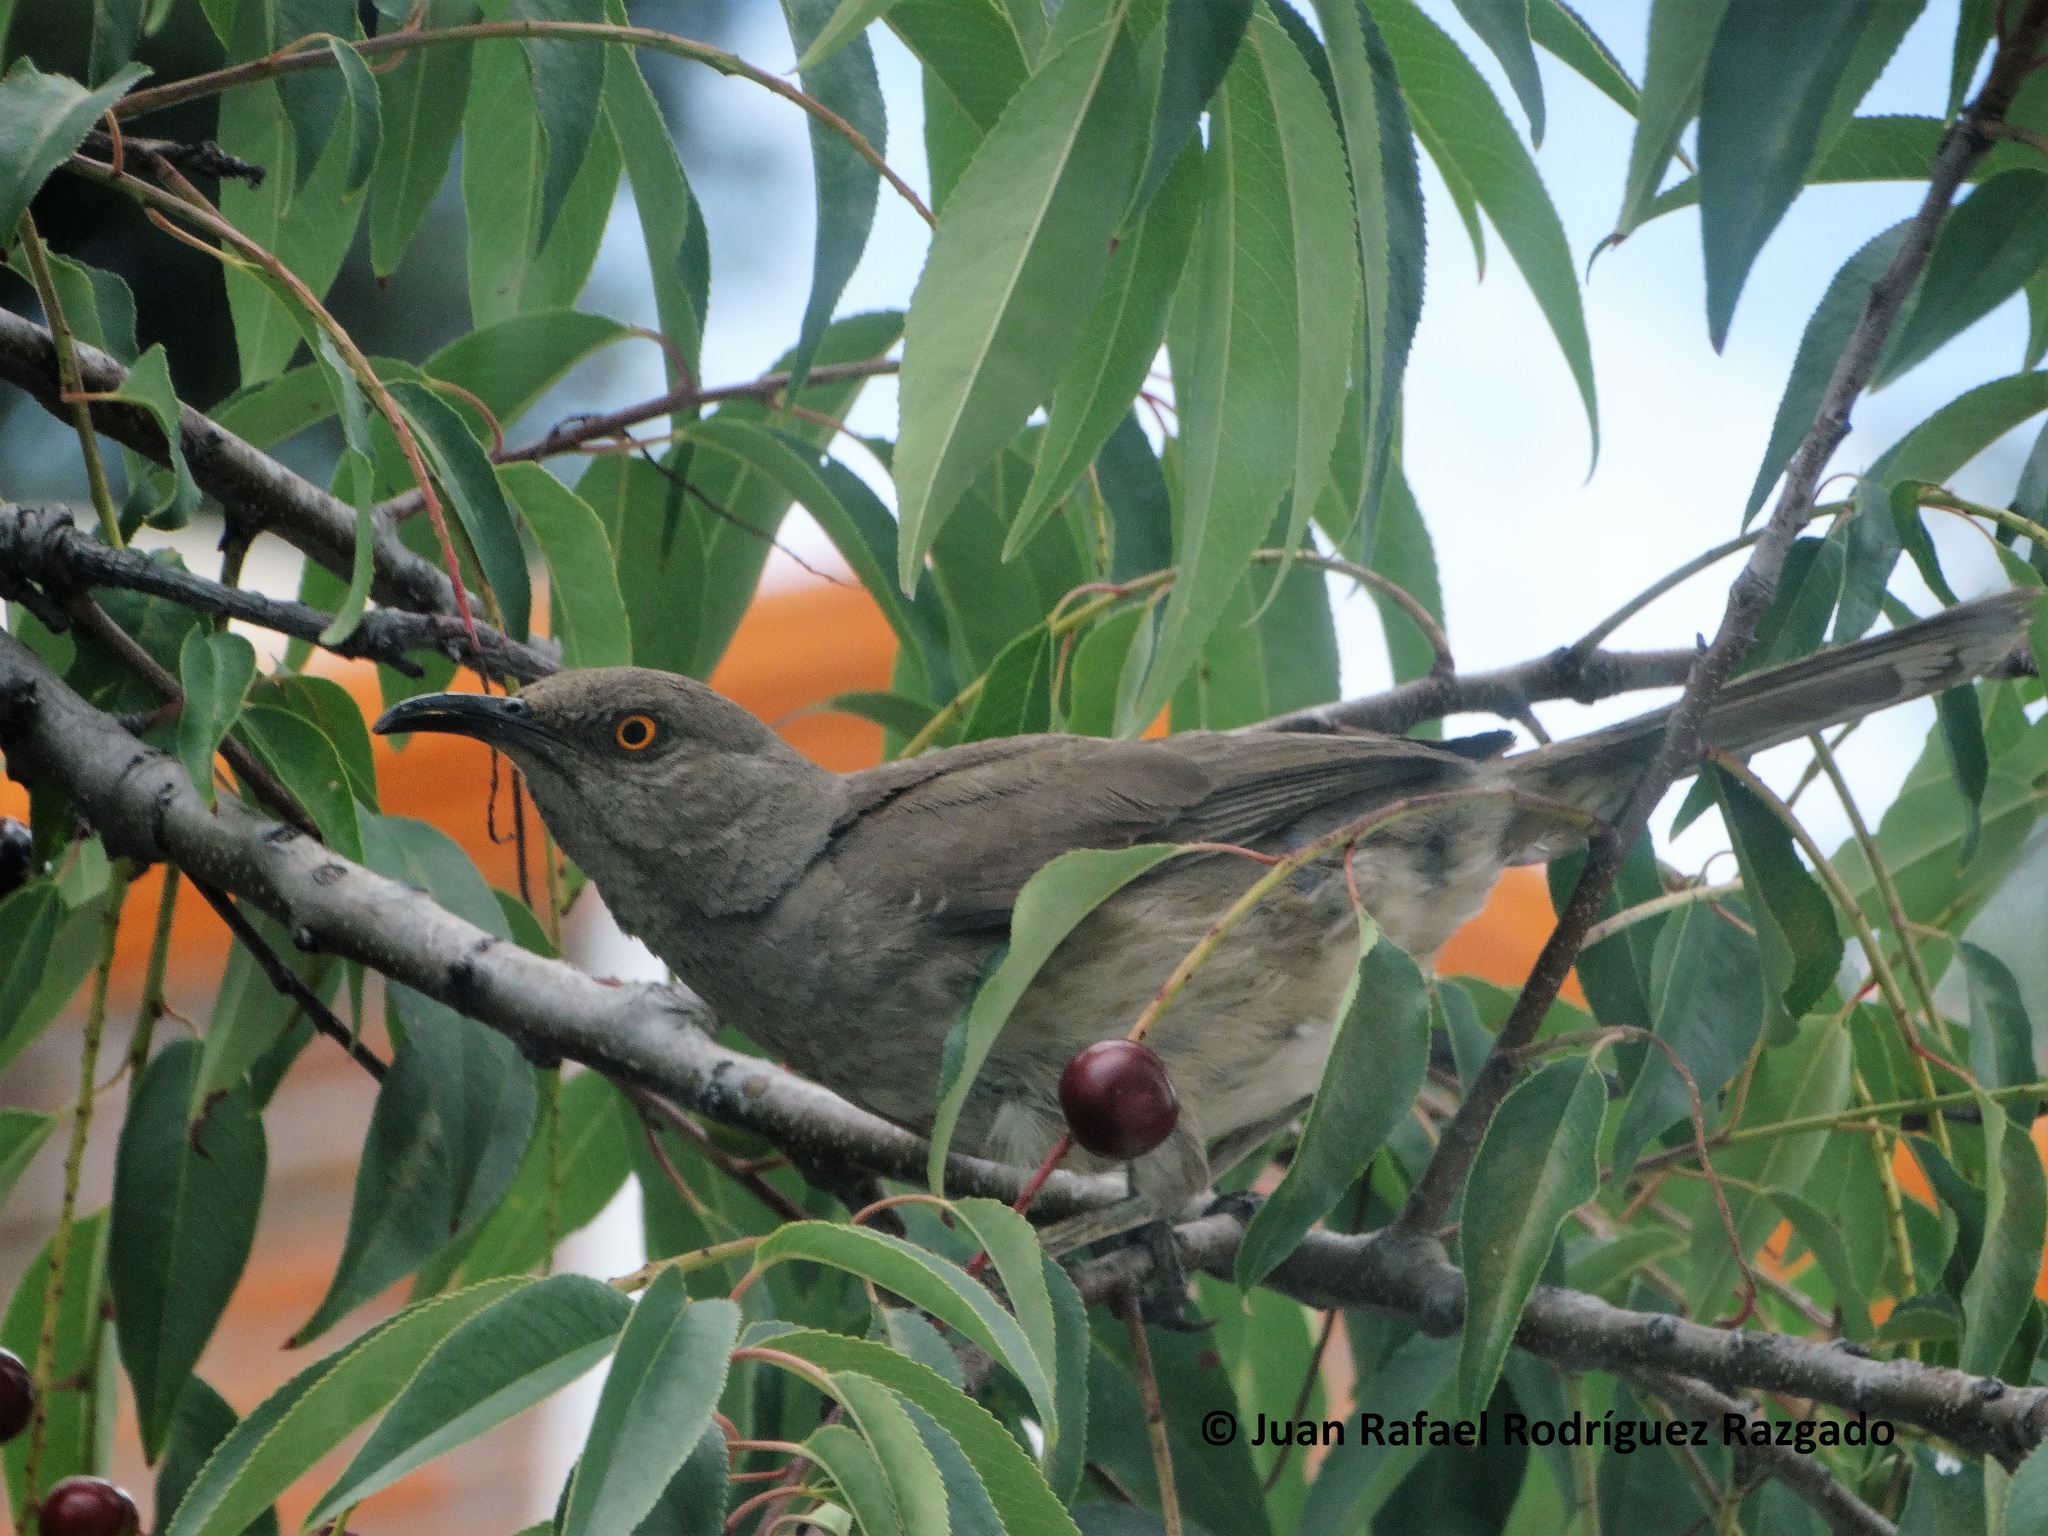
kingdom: Animalia
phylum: Chordata
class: Aves
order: Passeriformes
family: Mimidae
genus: Toxostoma
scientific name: Toxostoma curvirostre
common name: Curve-billed thrasher
